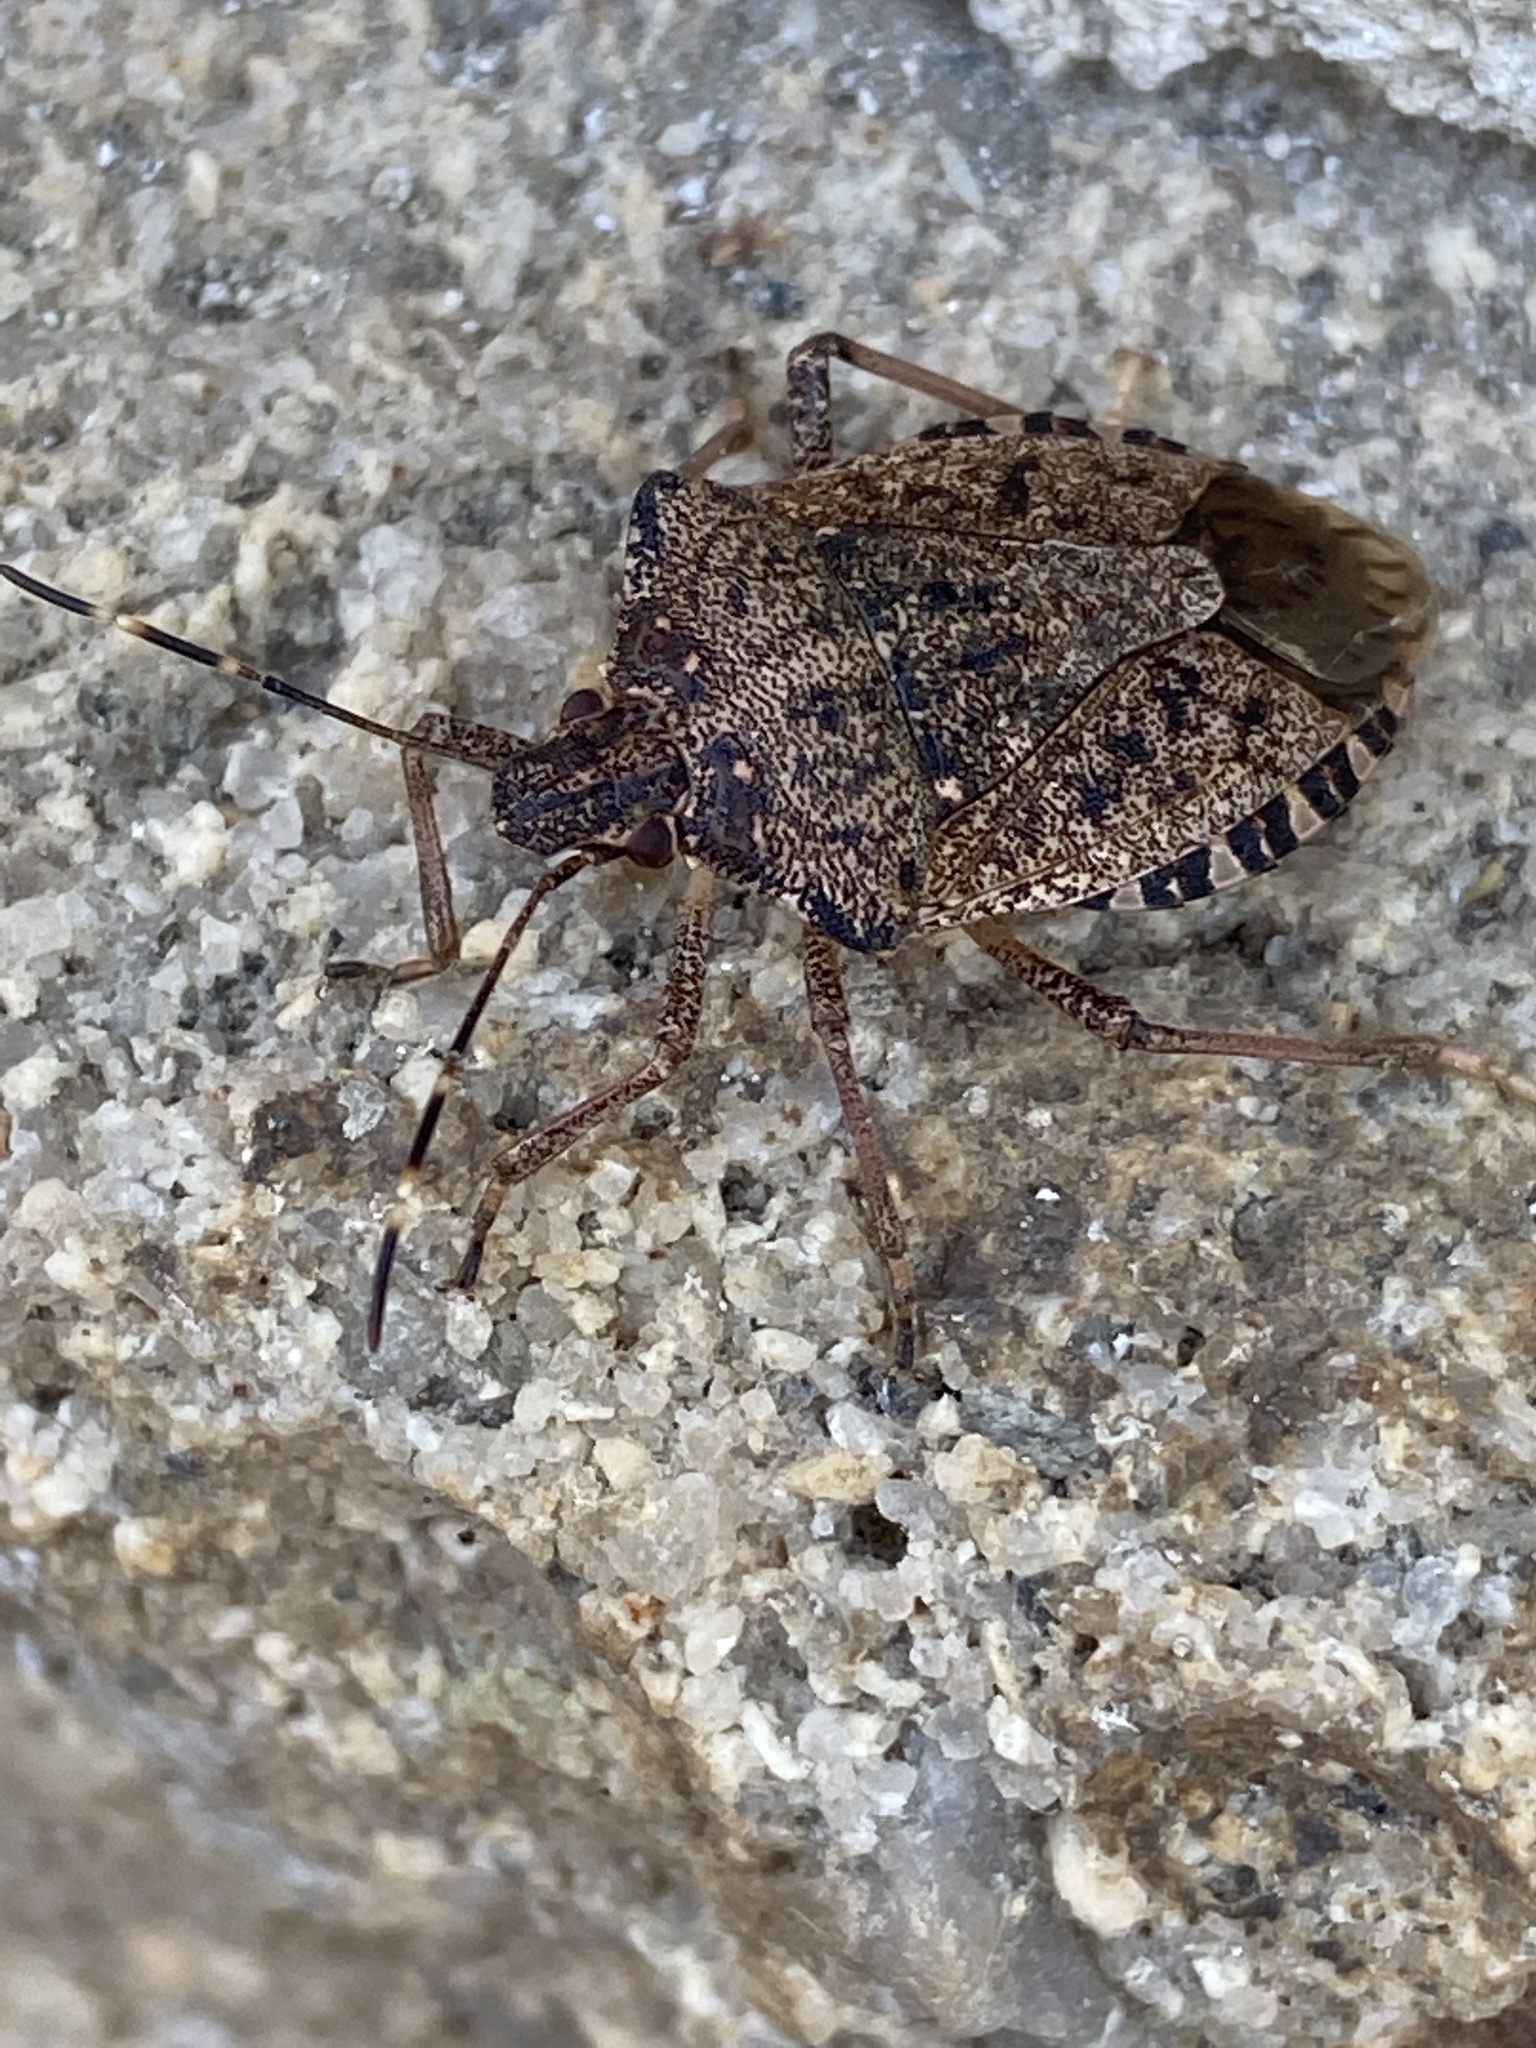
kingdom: Animalia
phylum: Arthropoda
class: Insecta
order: Hemiptera
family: Pentatomidae
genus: Halyomorpha
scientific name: Halyomorpha halys
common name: Brown marmorated stink bug
